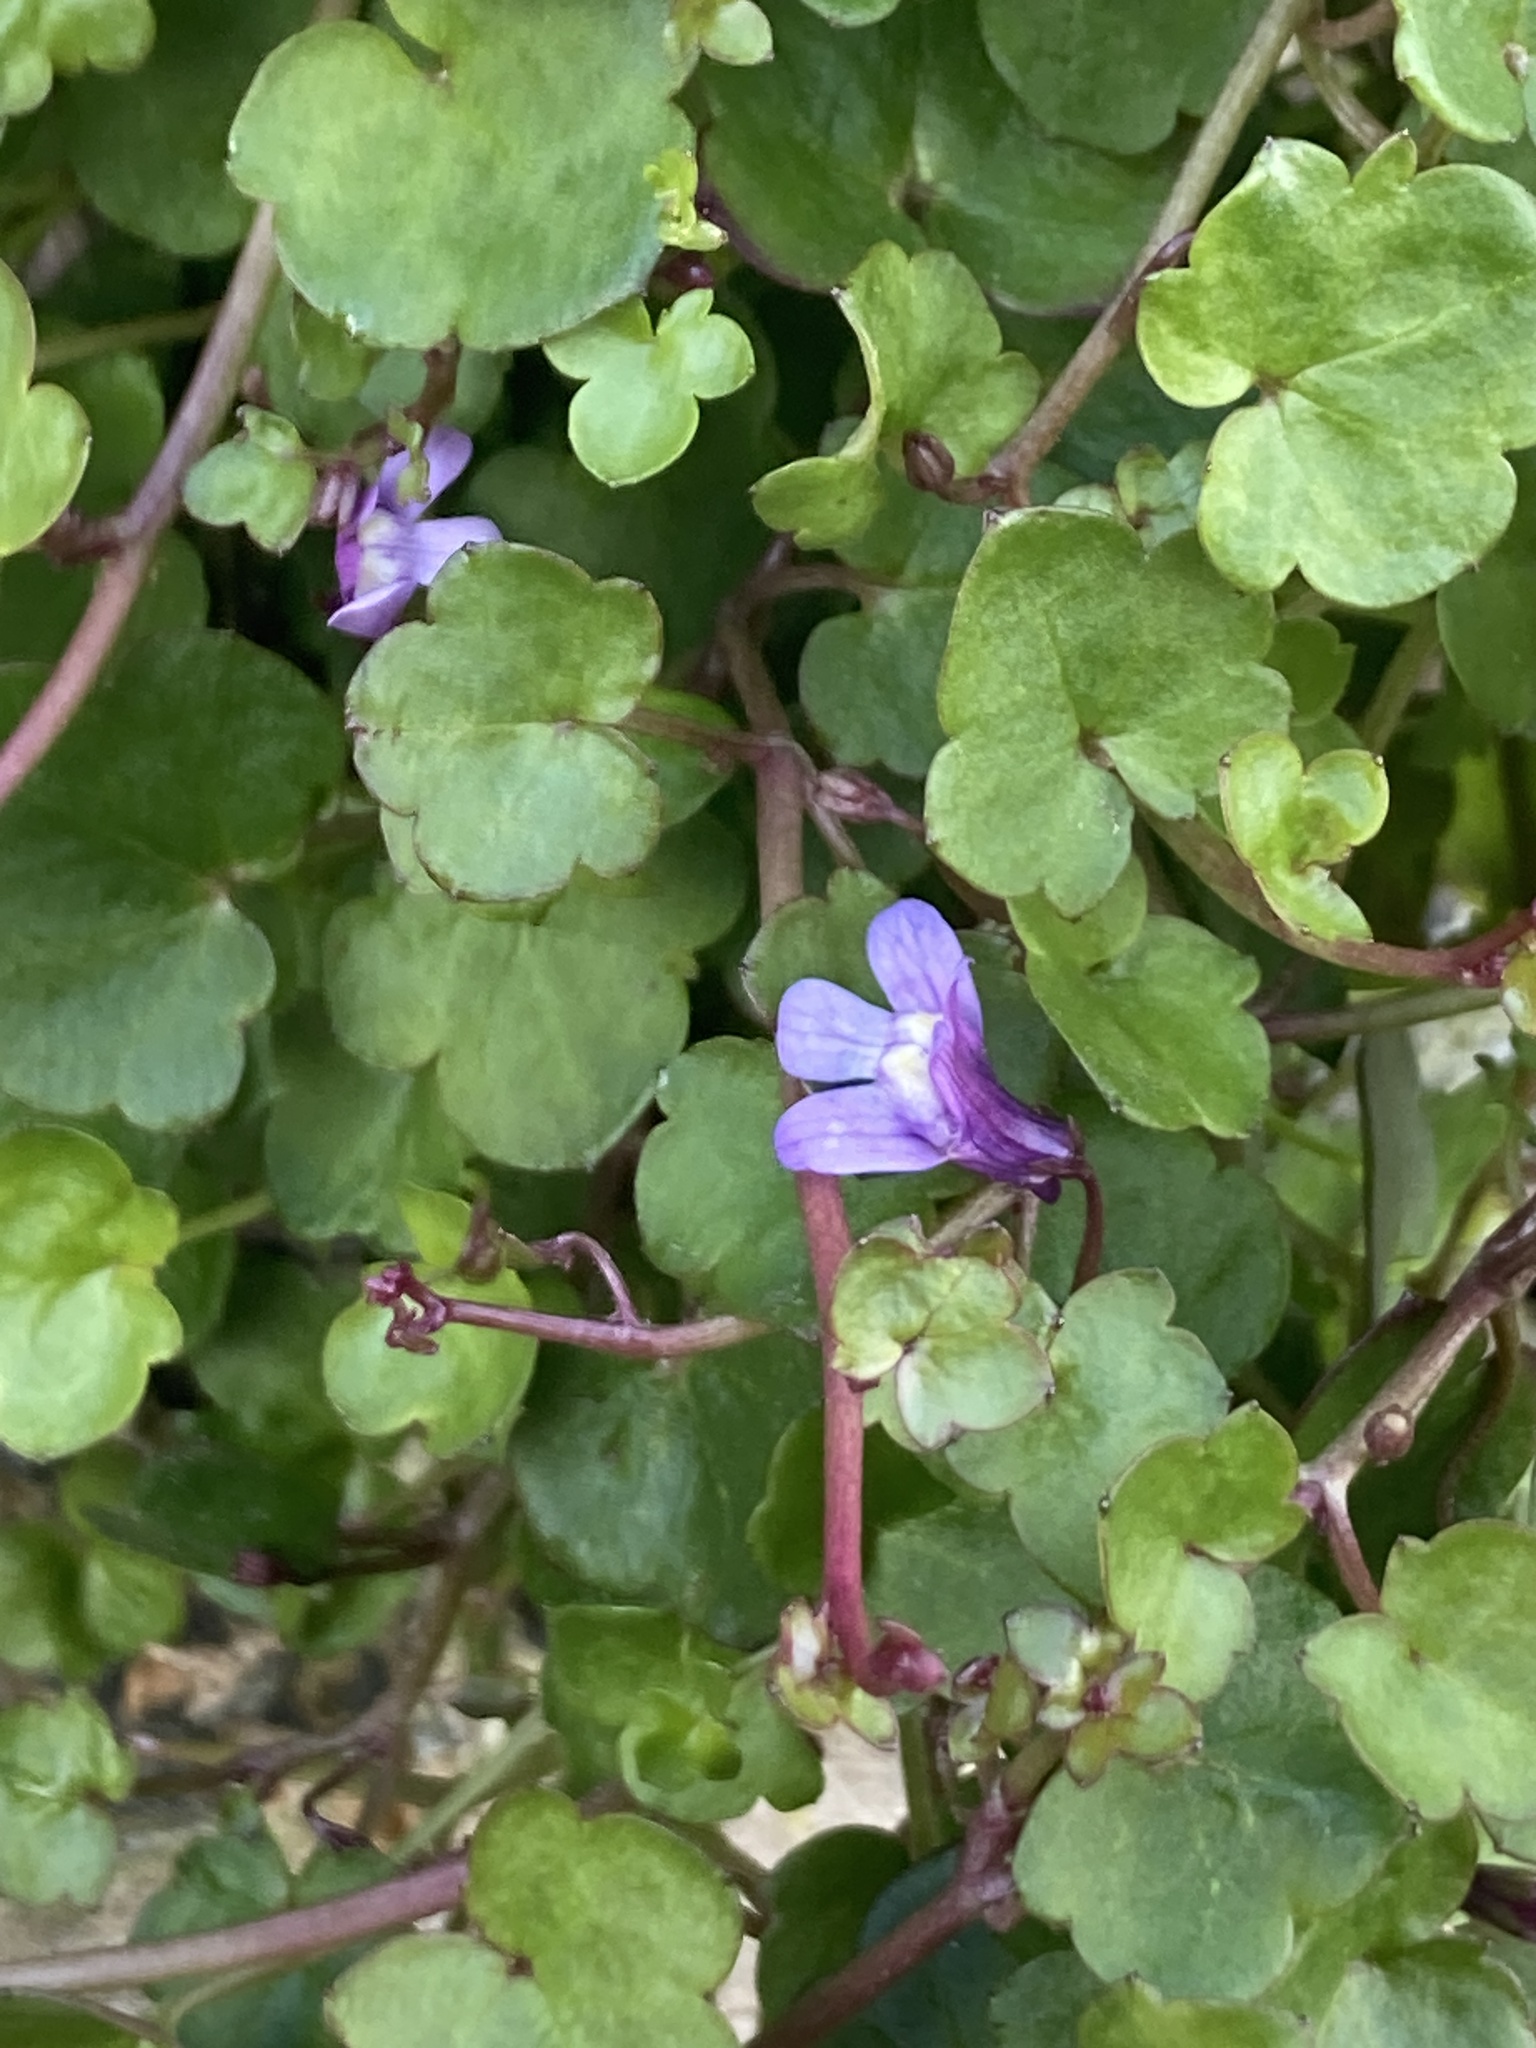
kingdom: Plantae
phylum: Tracheophyta
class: Magnoliopsida
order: Lamiales
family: Plantaginaceae
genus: Cymbalaria
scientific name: Cymbalaria muralis
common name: Ivy-leaved toadflax
